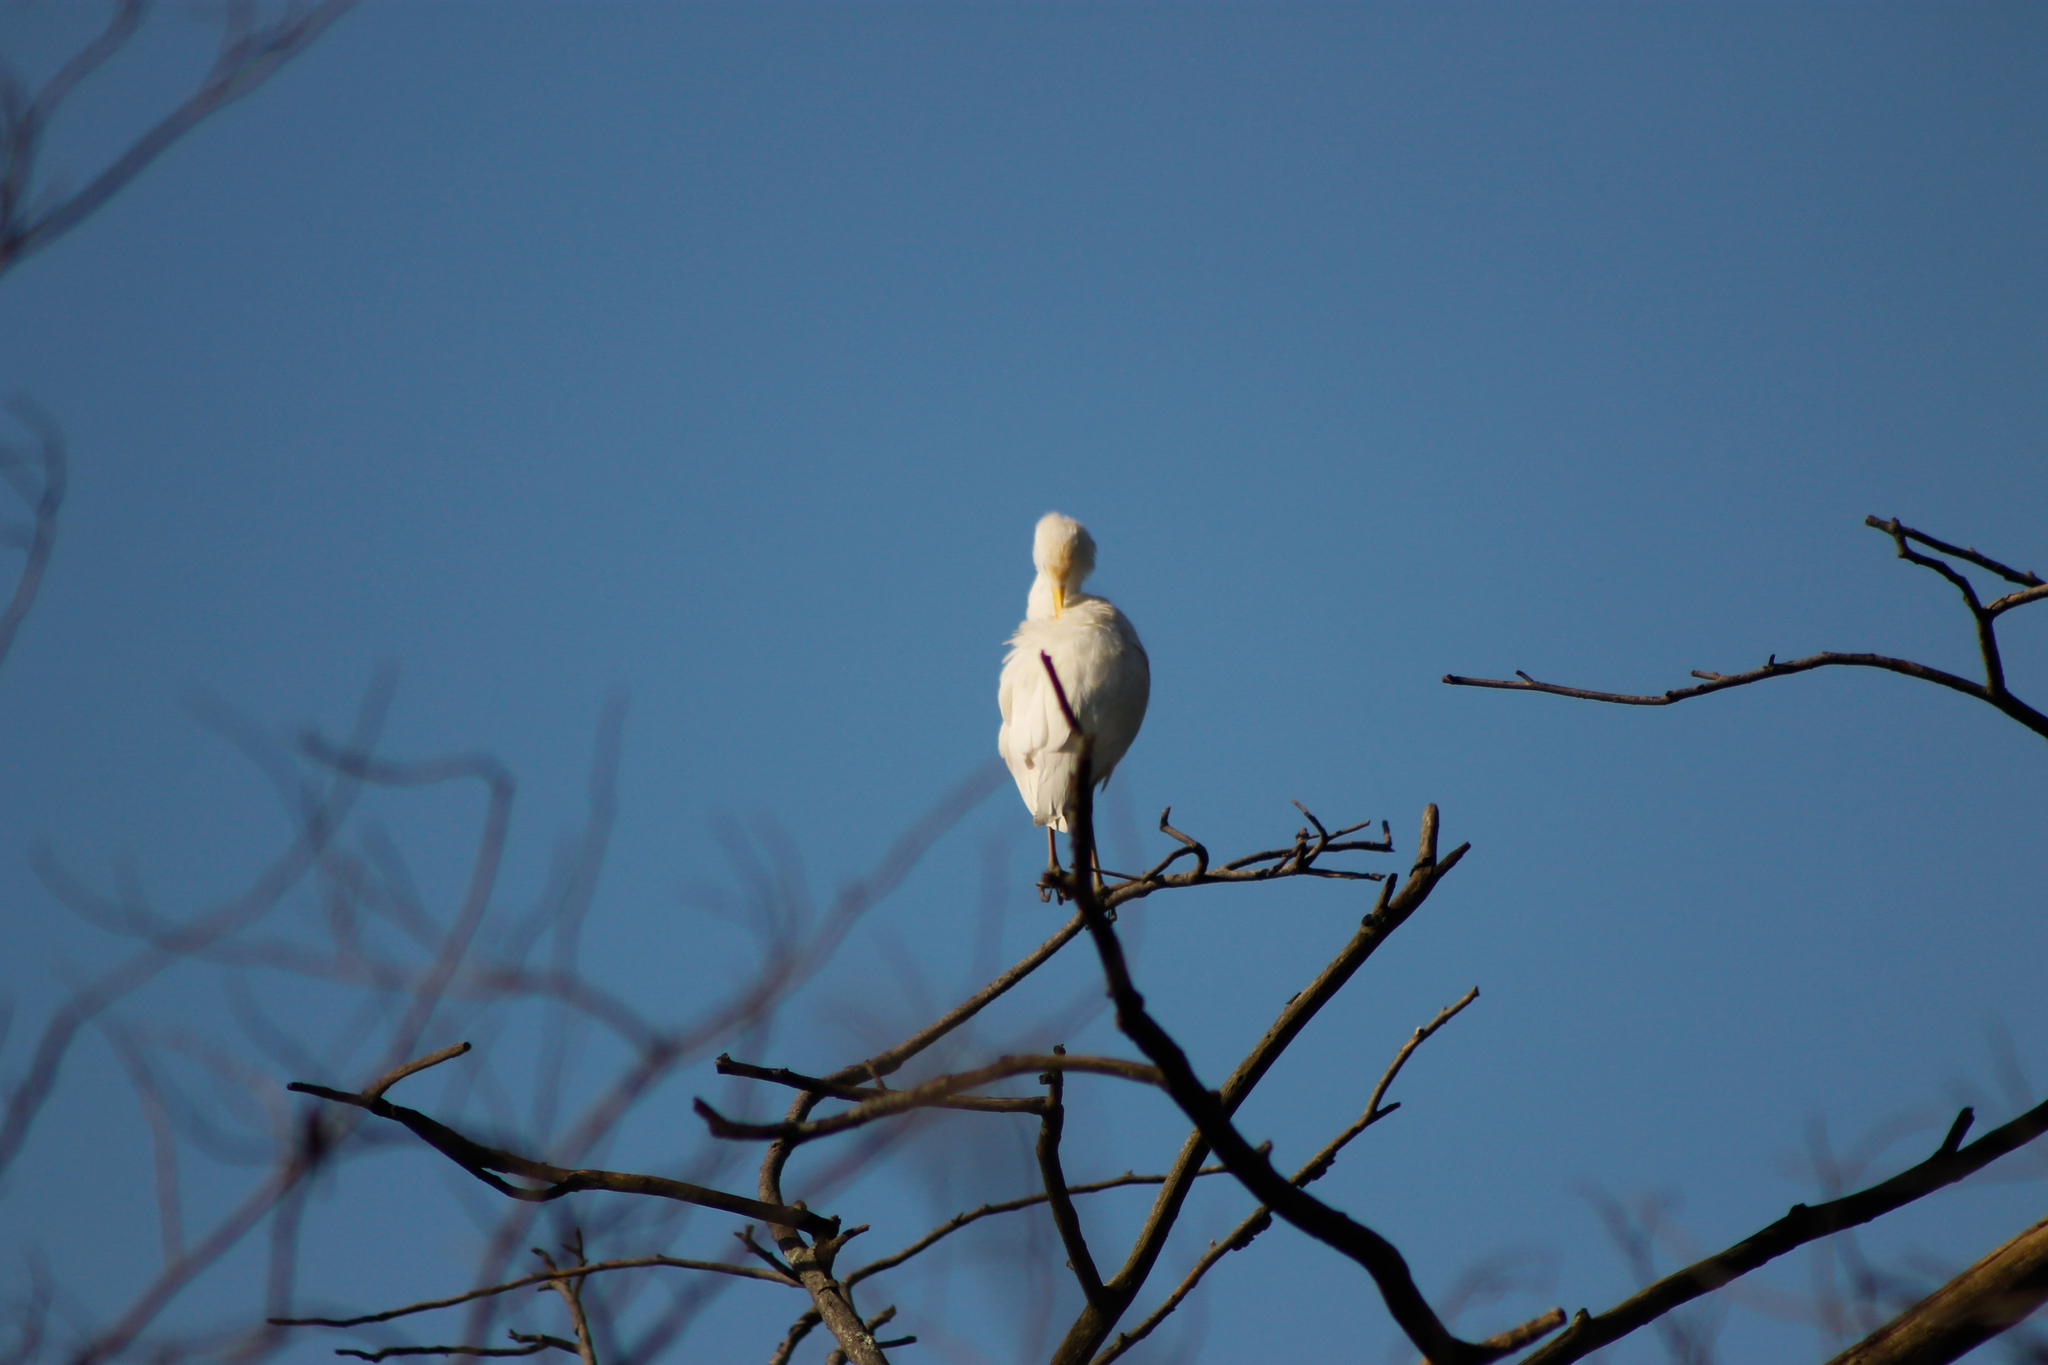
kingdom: Animalia
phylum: Chordata
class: Aves
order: Pelecaniformes
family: Ardeidae
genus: Bubulcus
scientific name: Bubulcus ibis
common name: Cattle egret
